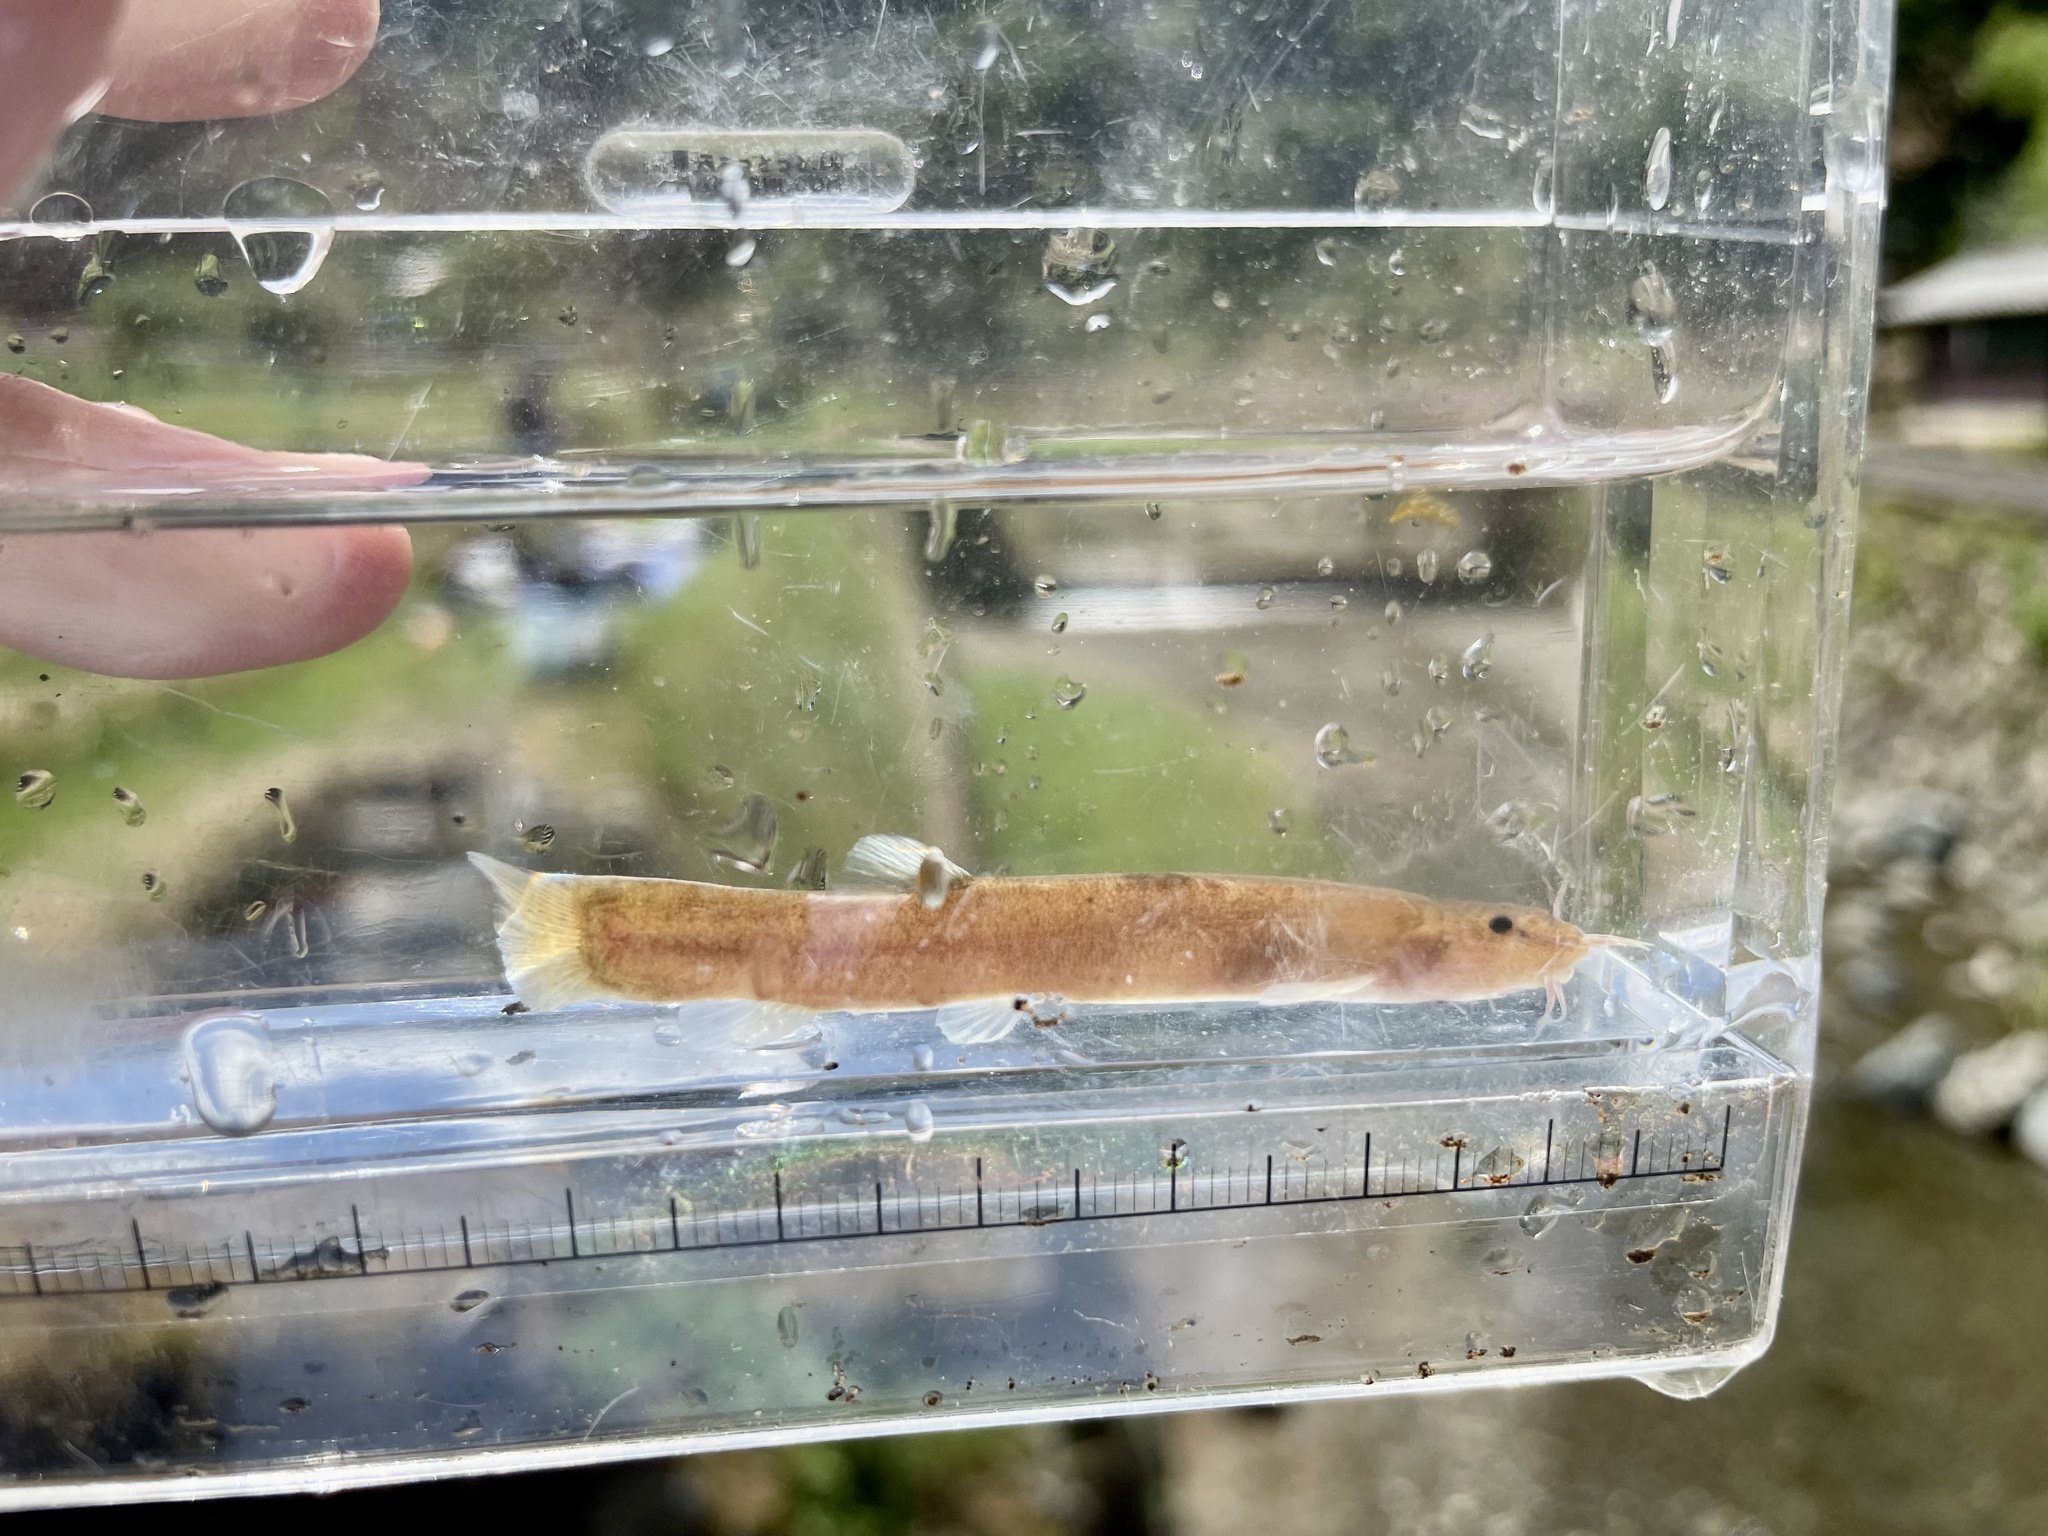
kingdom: Animalia
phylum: Chordata
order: Cypriniformes
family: Nemacheilidae
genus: Lefua
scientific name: Lefua torrentis
